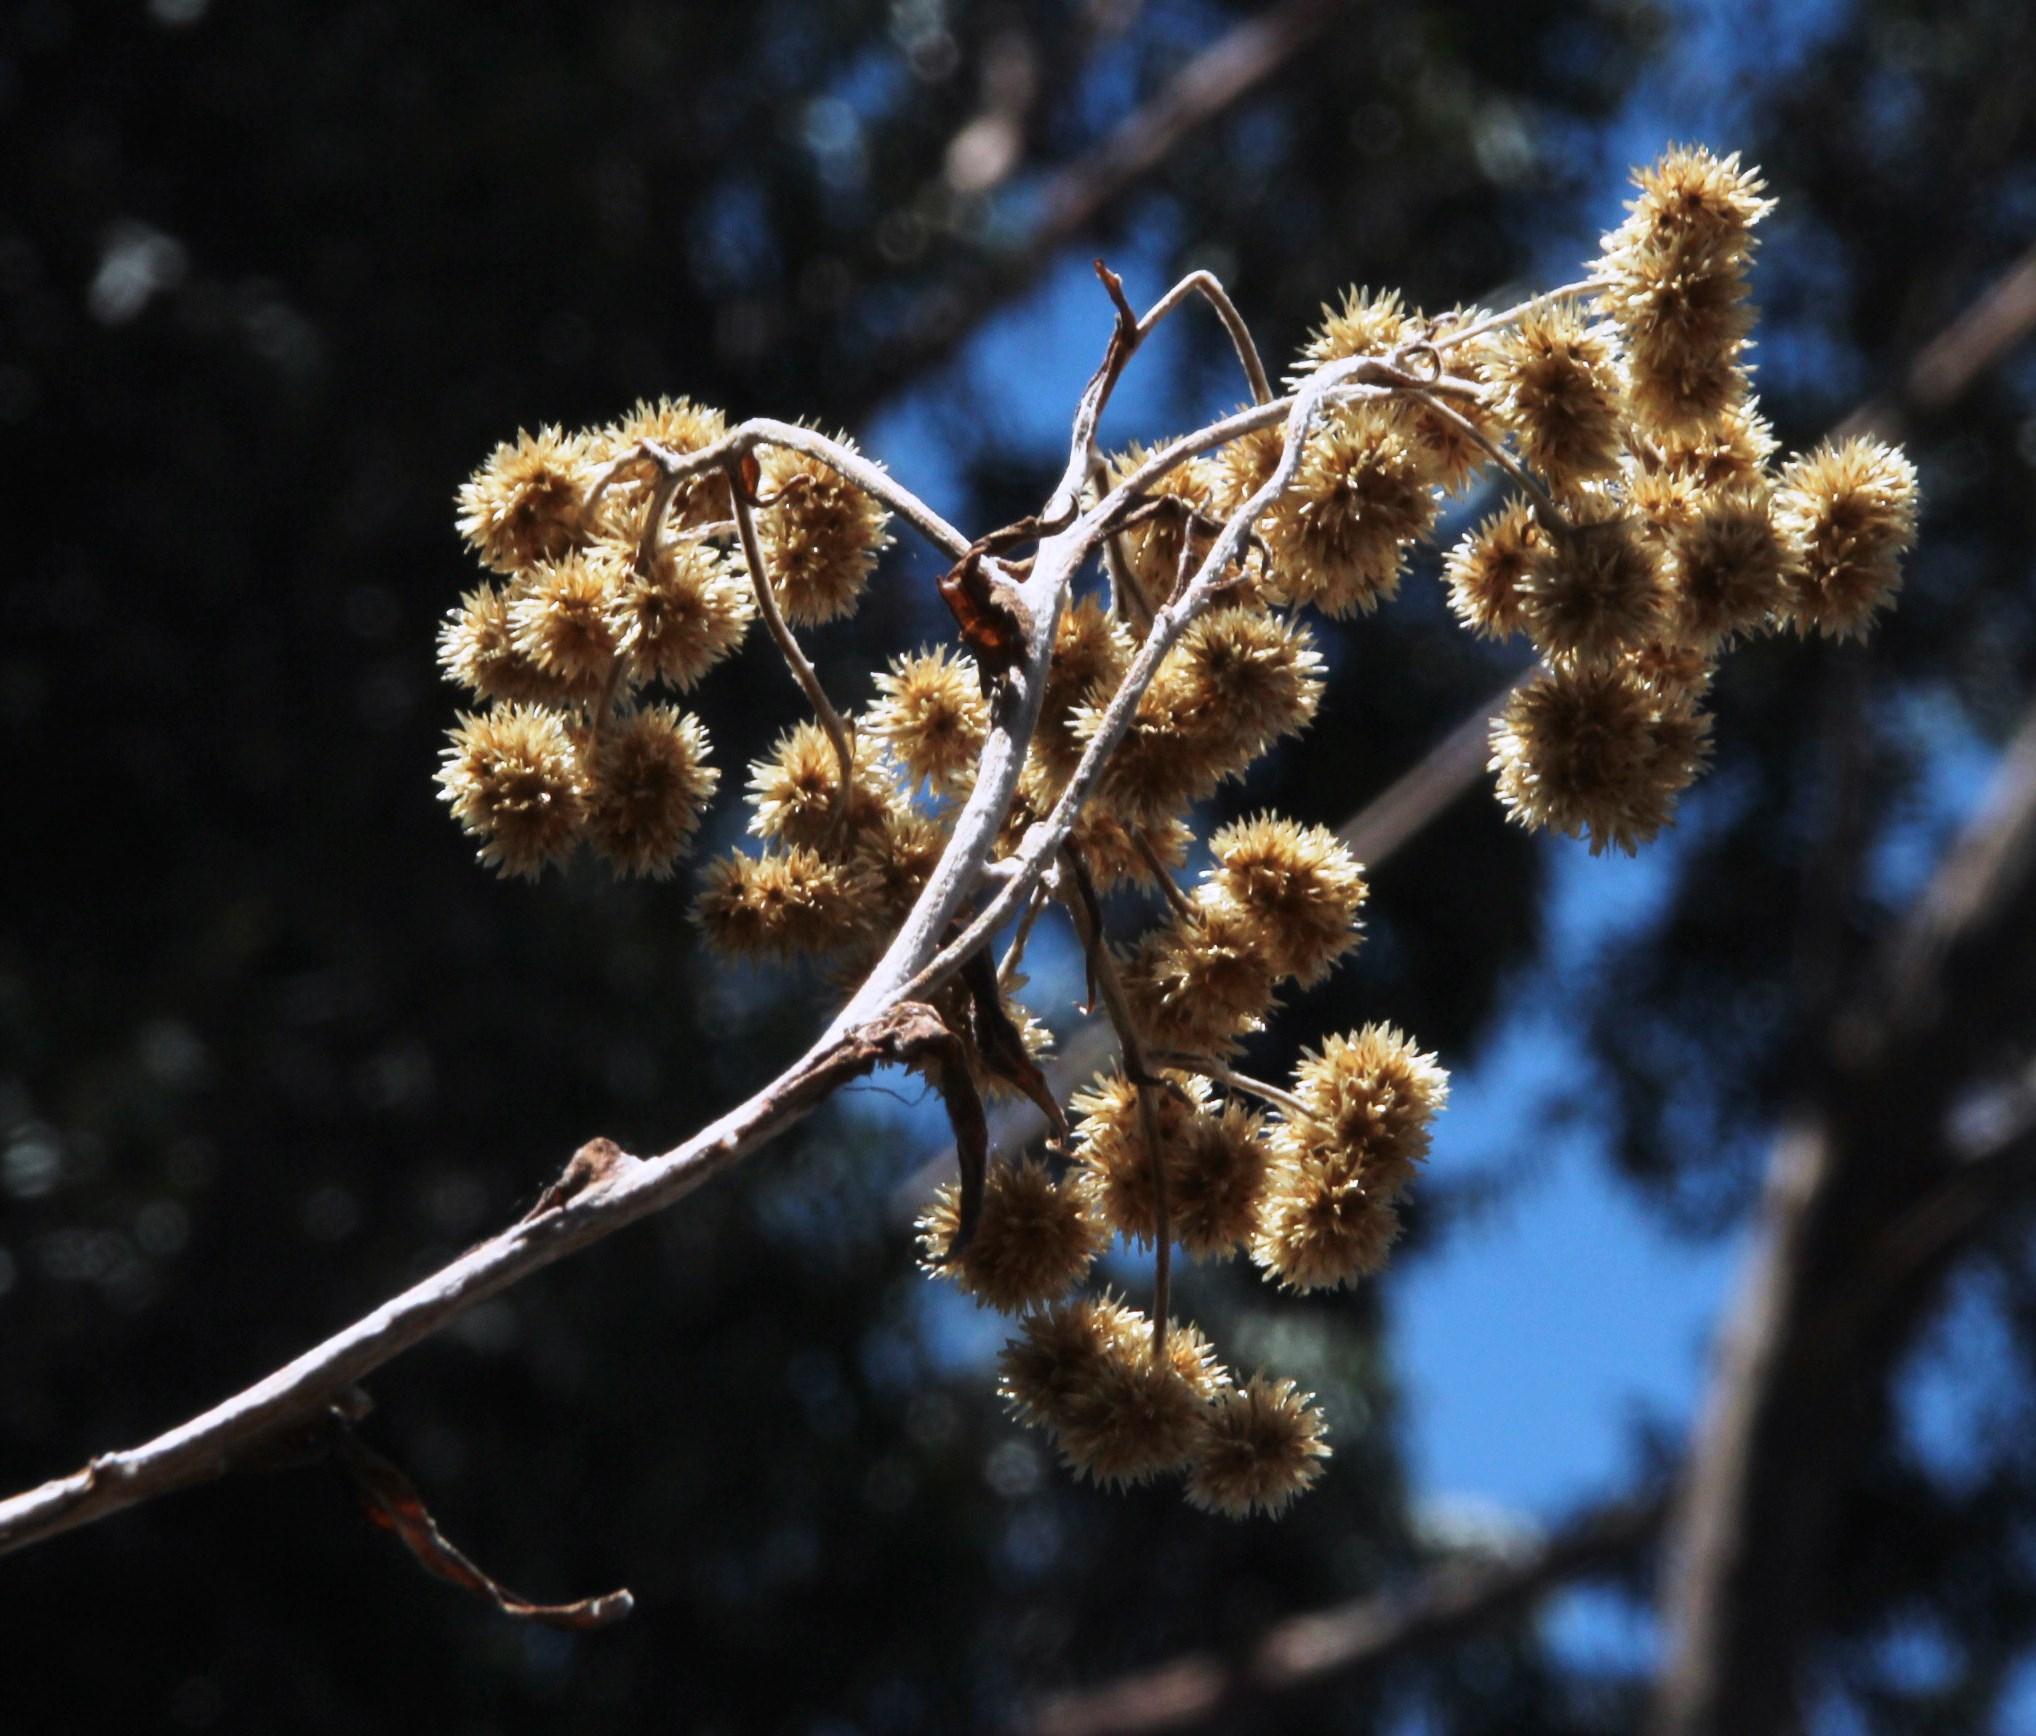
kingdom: Plantae
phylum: Tracheophyta
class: Magnoliopsida
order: Asterales
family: Asteraceae
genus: Achyrocline
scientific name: Achyrocline satureioides
